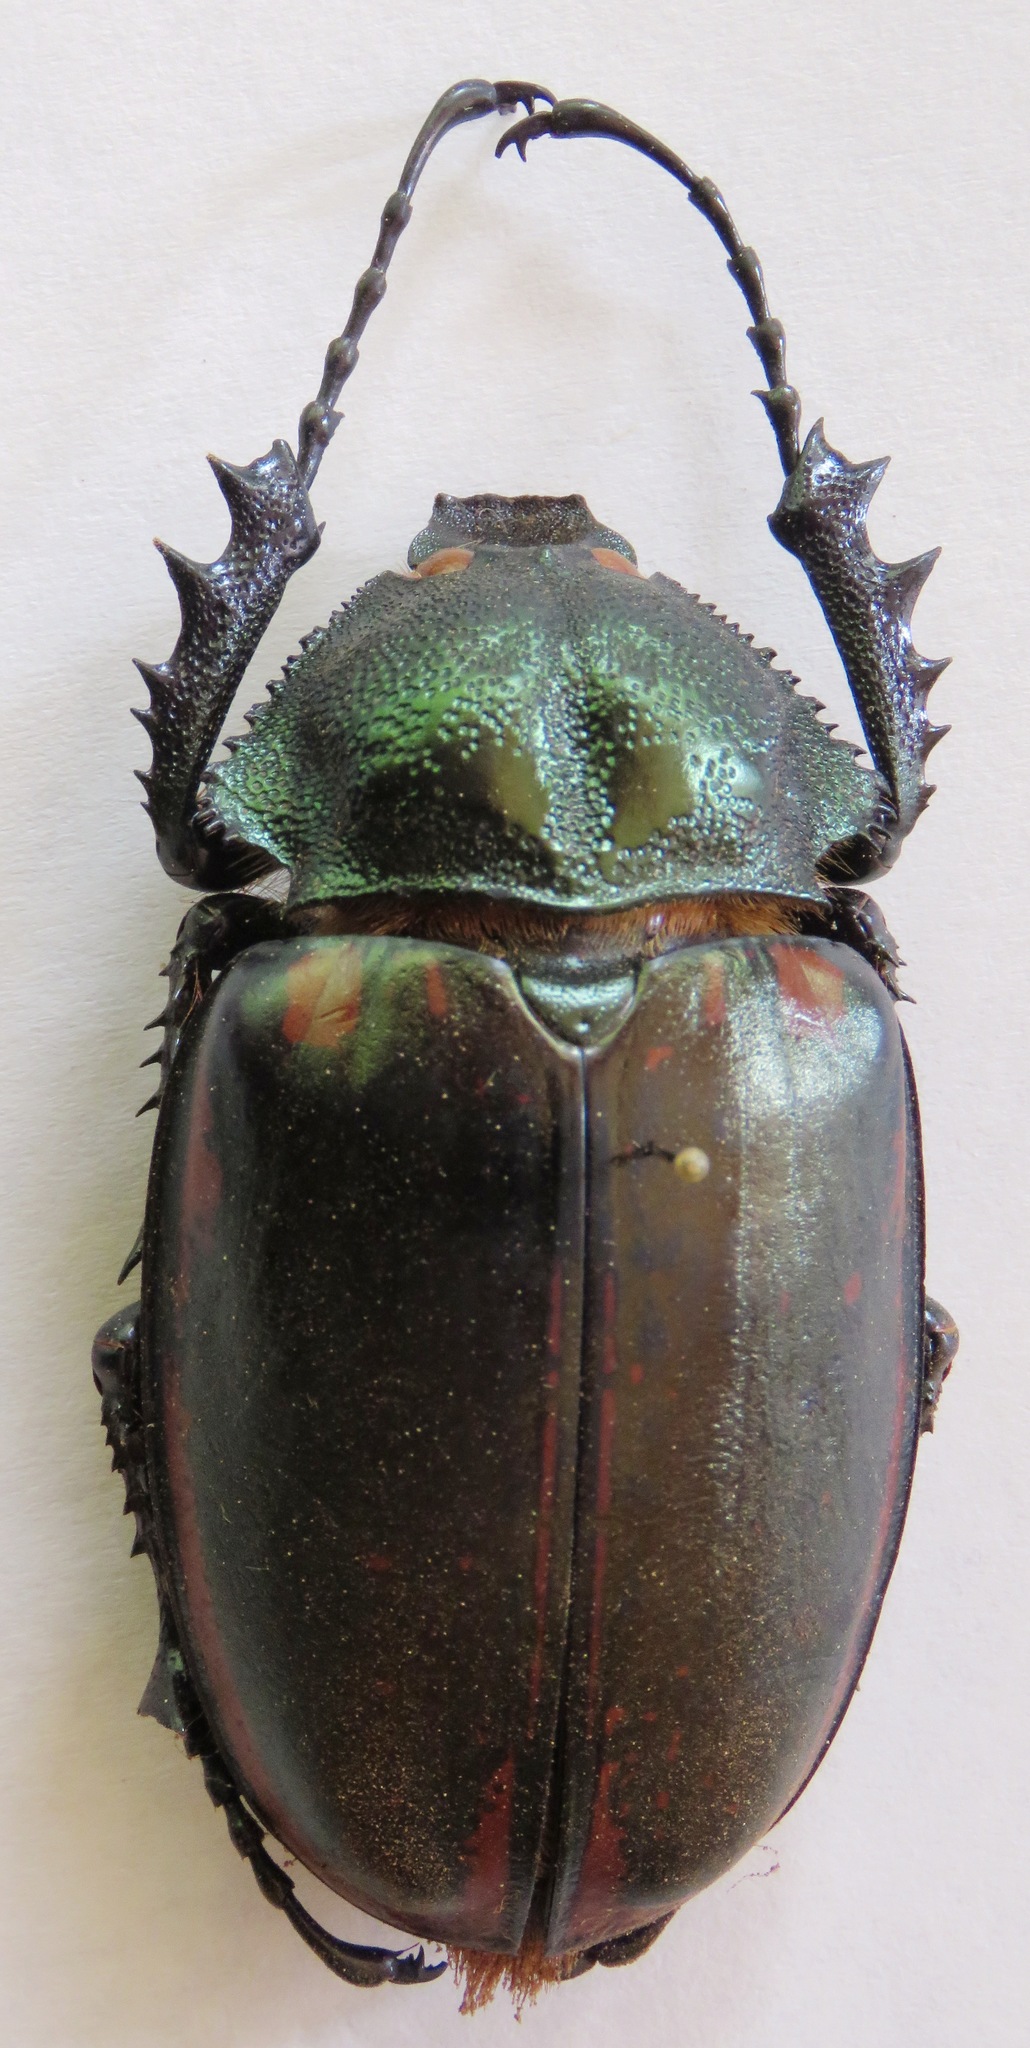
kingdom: Animalia
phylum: Arthropoda
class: Insecta
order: Coleoptera
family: Scarabaeidae
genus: Cheirotonus
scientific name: Cheirotonus jansoni
